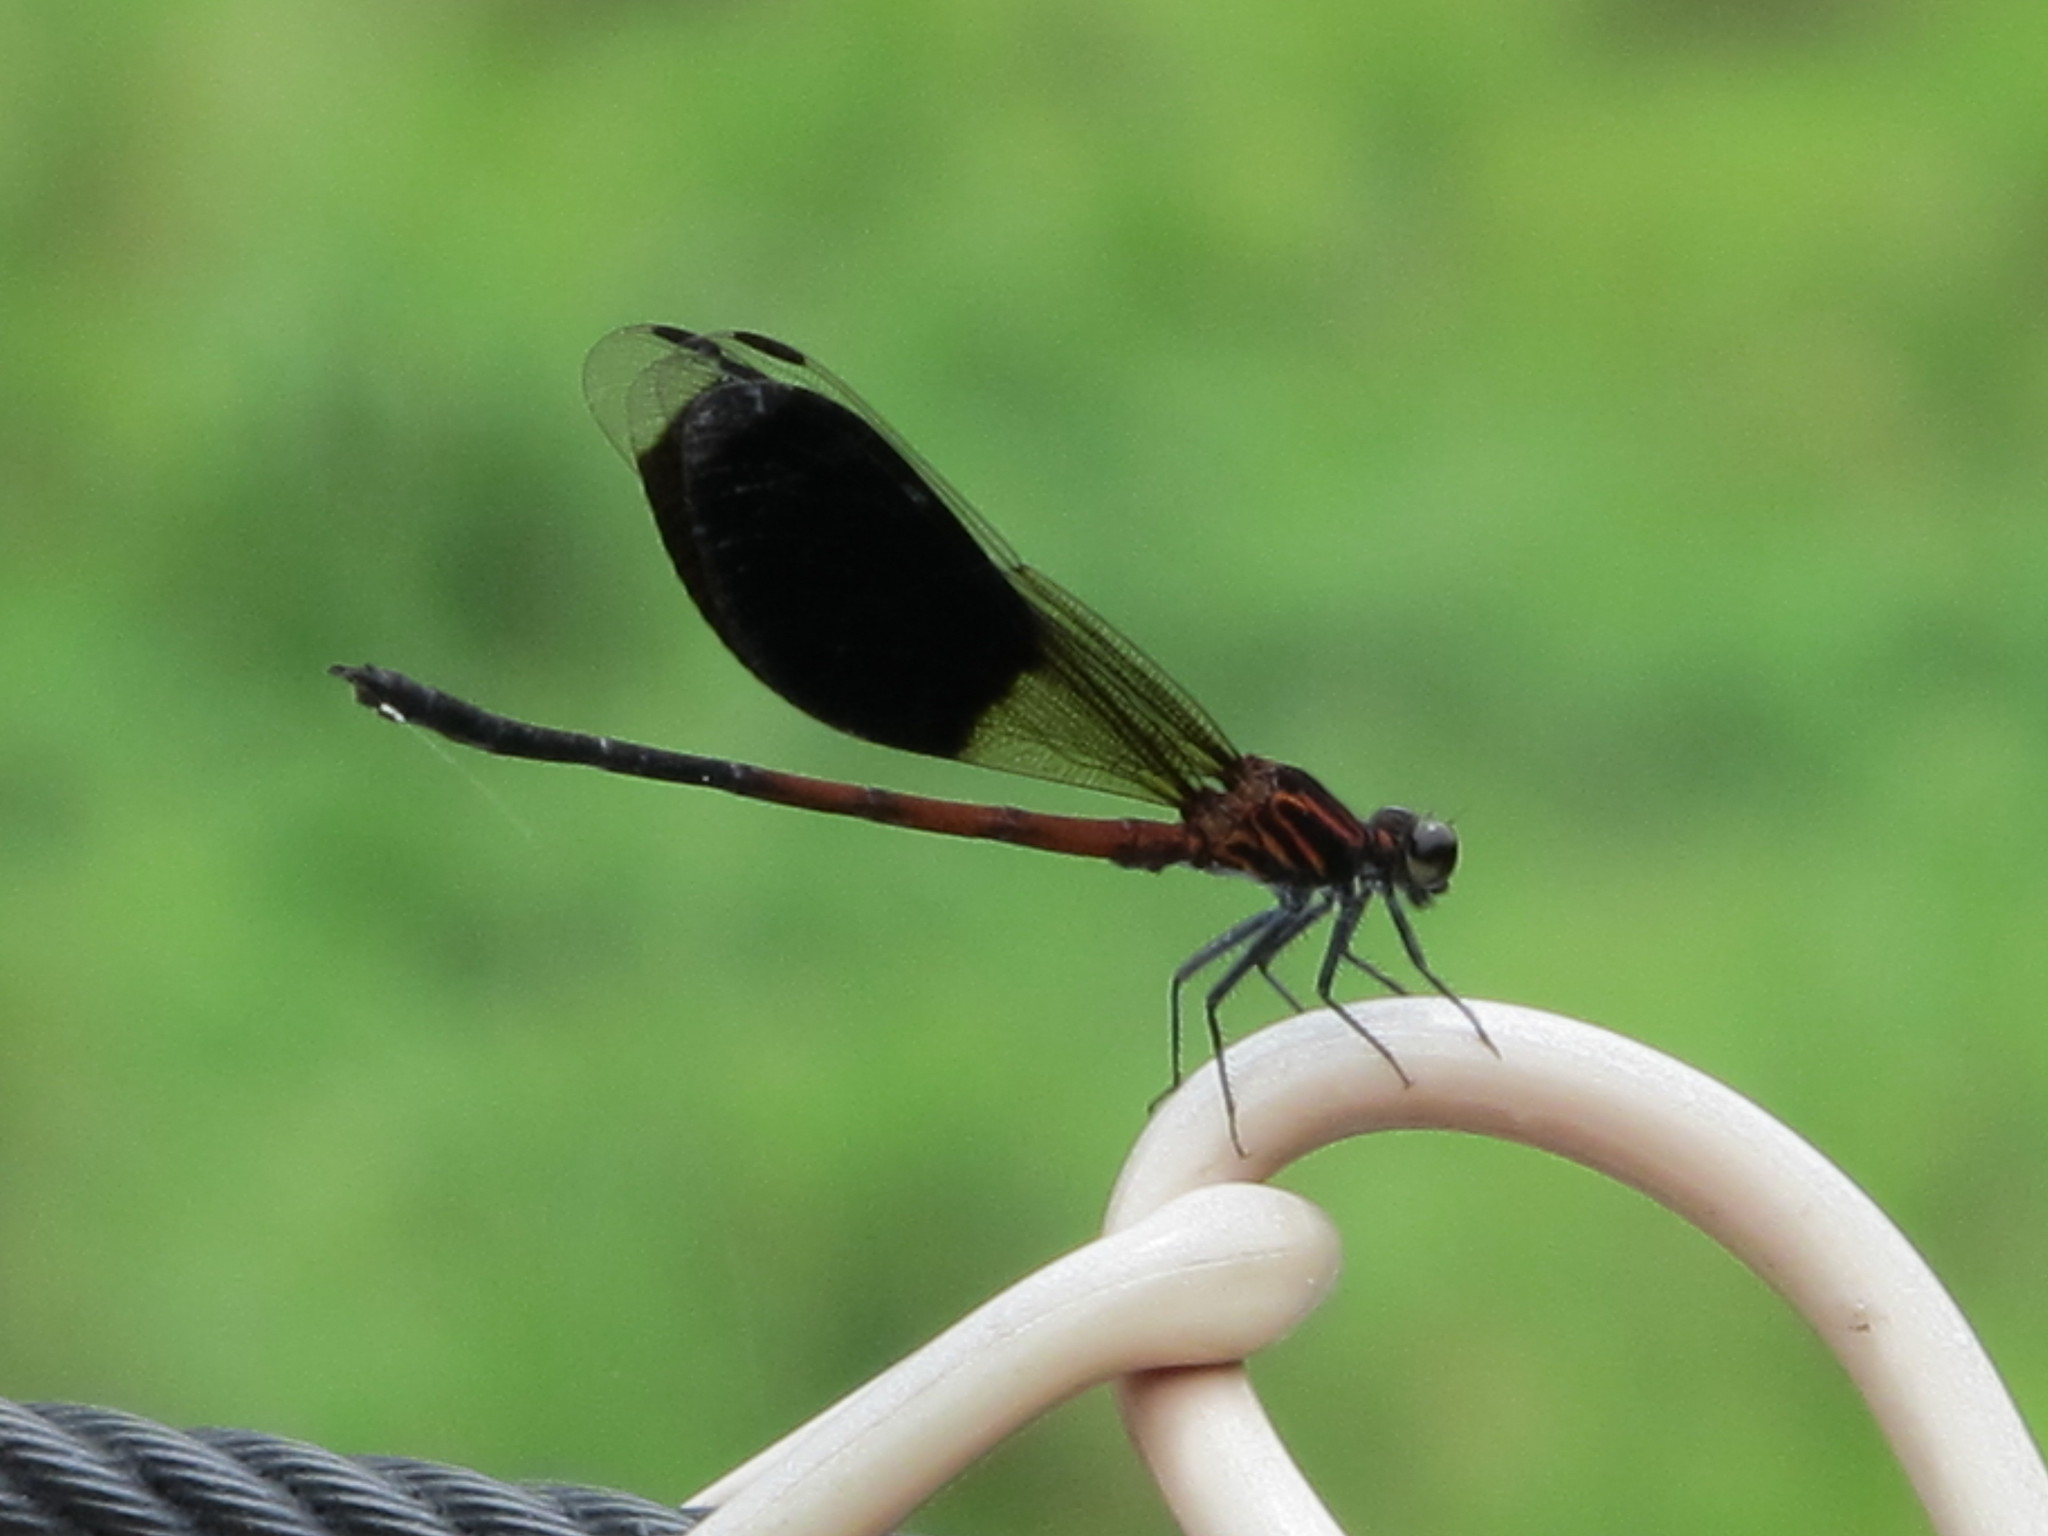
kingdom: Animalia
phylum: Arthropoda
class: Insecta
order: Odonata
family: Euphaeidae
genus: Euphaea
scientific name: Euphaea formosa
